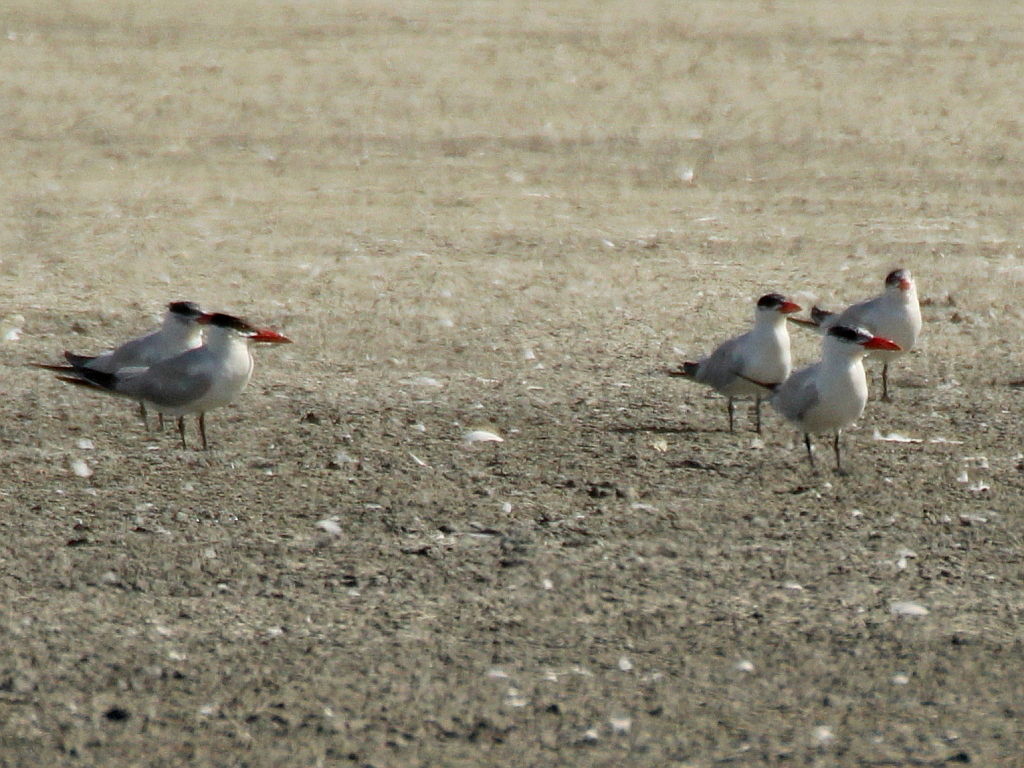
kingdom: Animalia
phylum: Chordata
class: Aves
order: Charadriiformes
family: Laridae
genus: Hydroprogne
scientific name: Hydroprogne caspia
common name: Caspian tern
